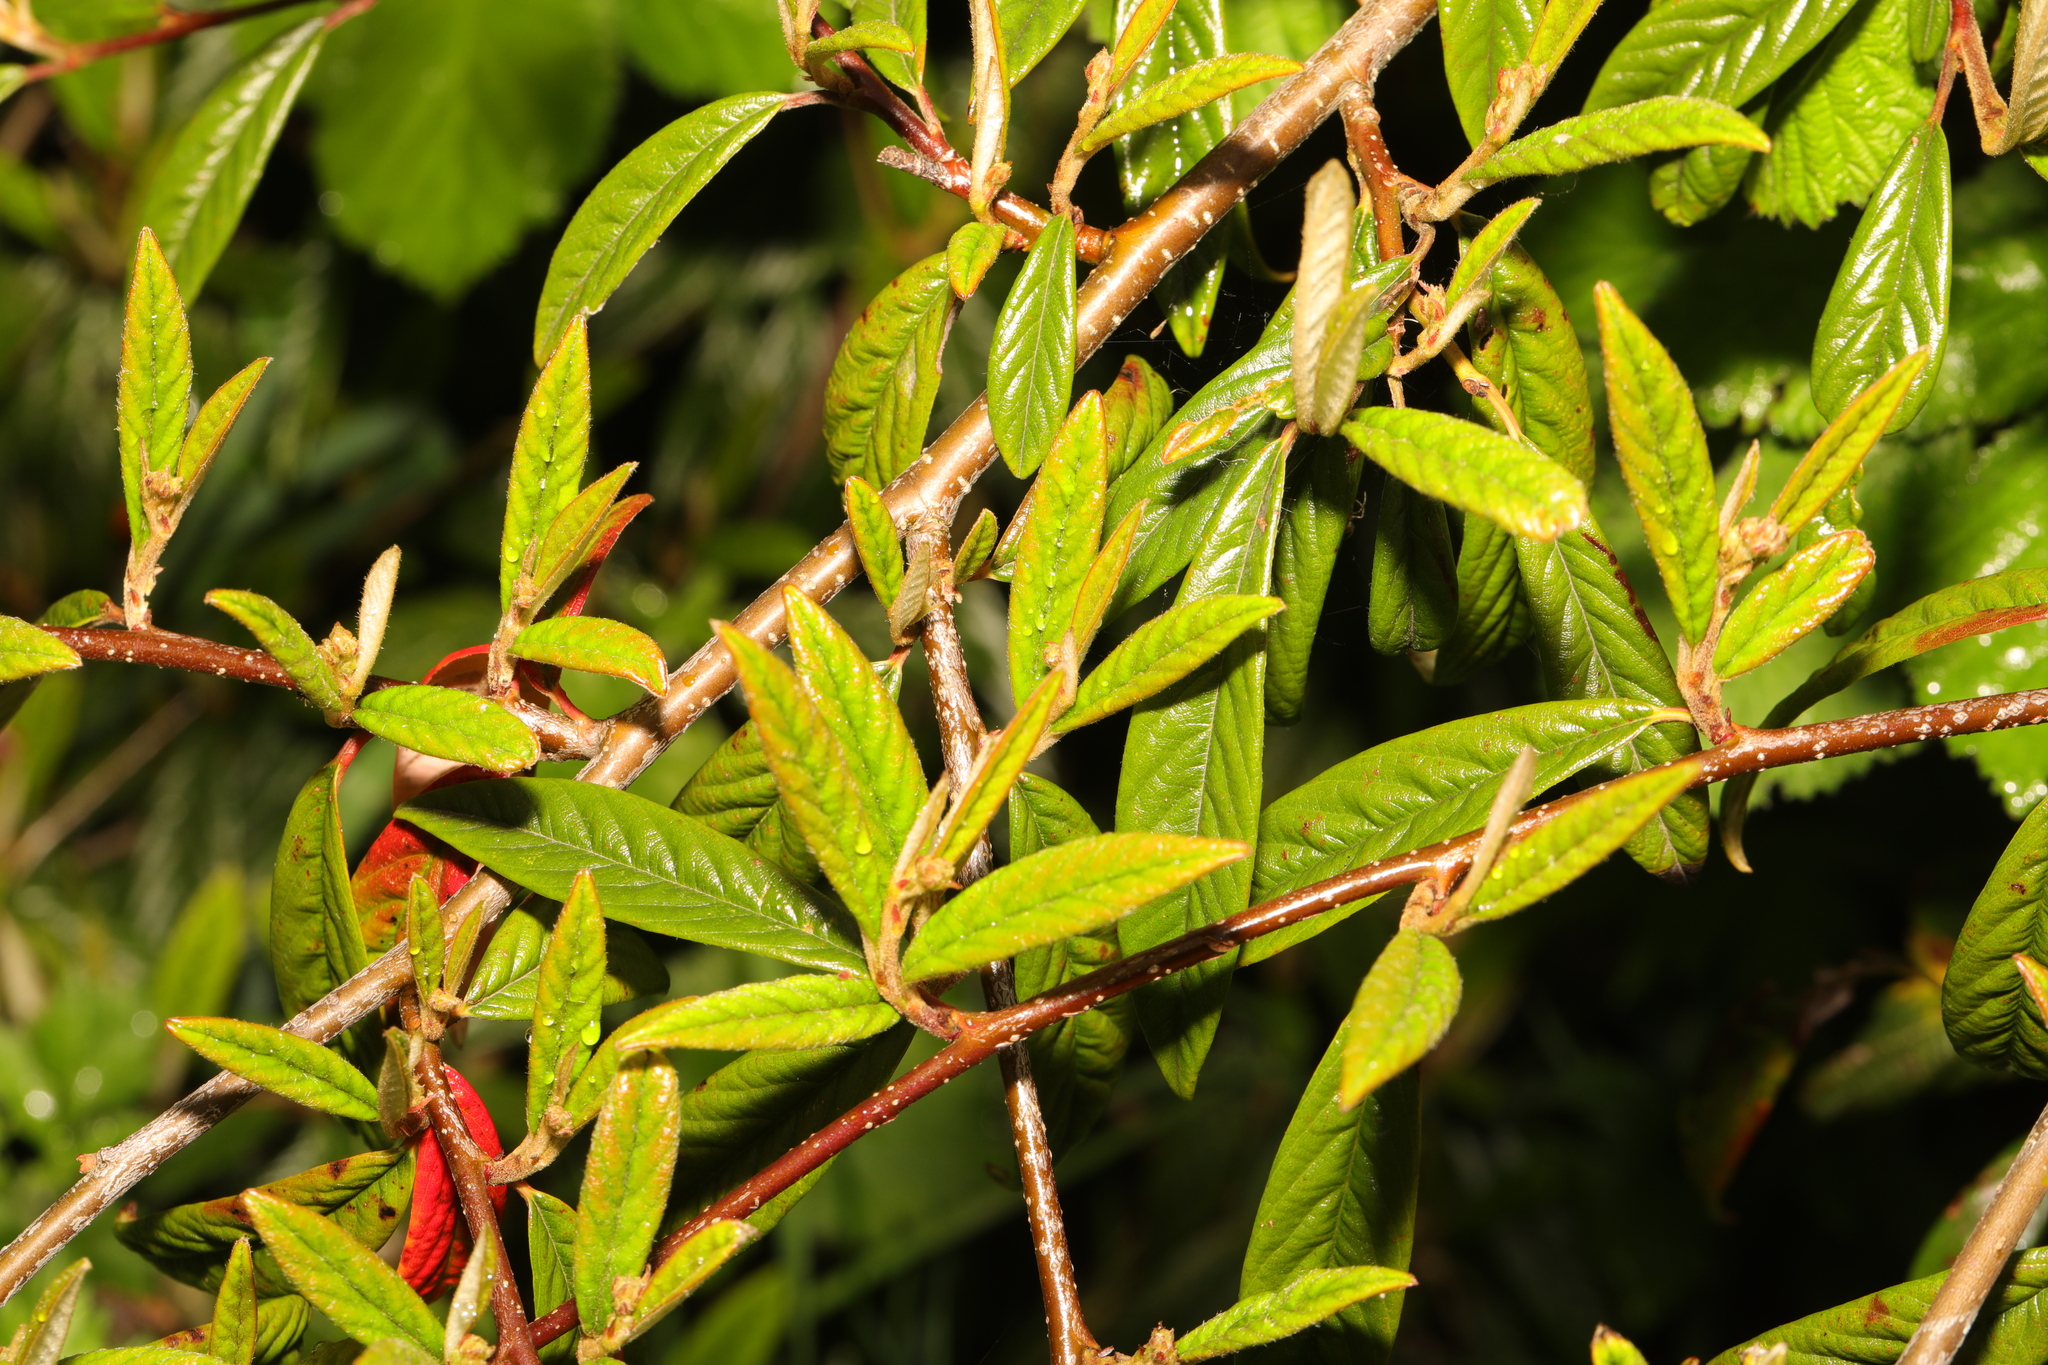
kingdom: Plantae
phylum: Tracheophyta
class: Magnoliopsida
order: Rosales
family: Rosaceae
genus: Cotoneaster
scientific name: Cotoneaster salicifolius
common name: Willow-leaved cotoneaster
